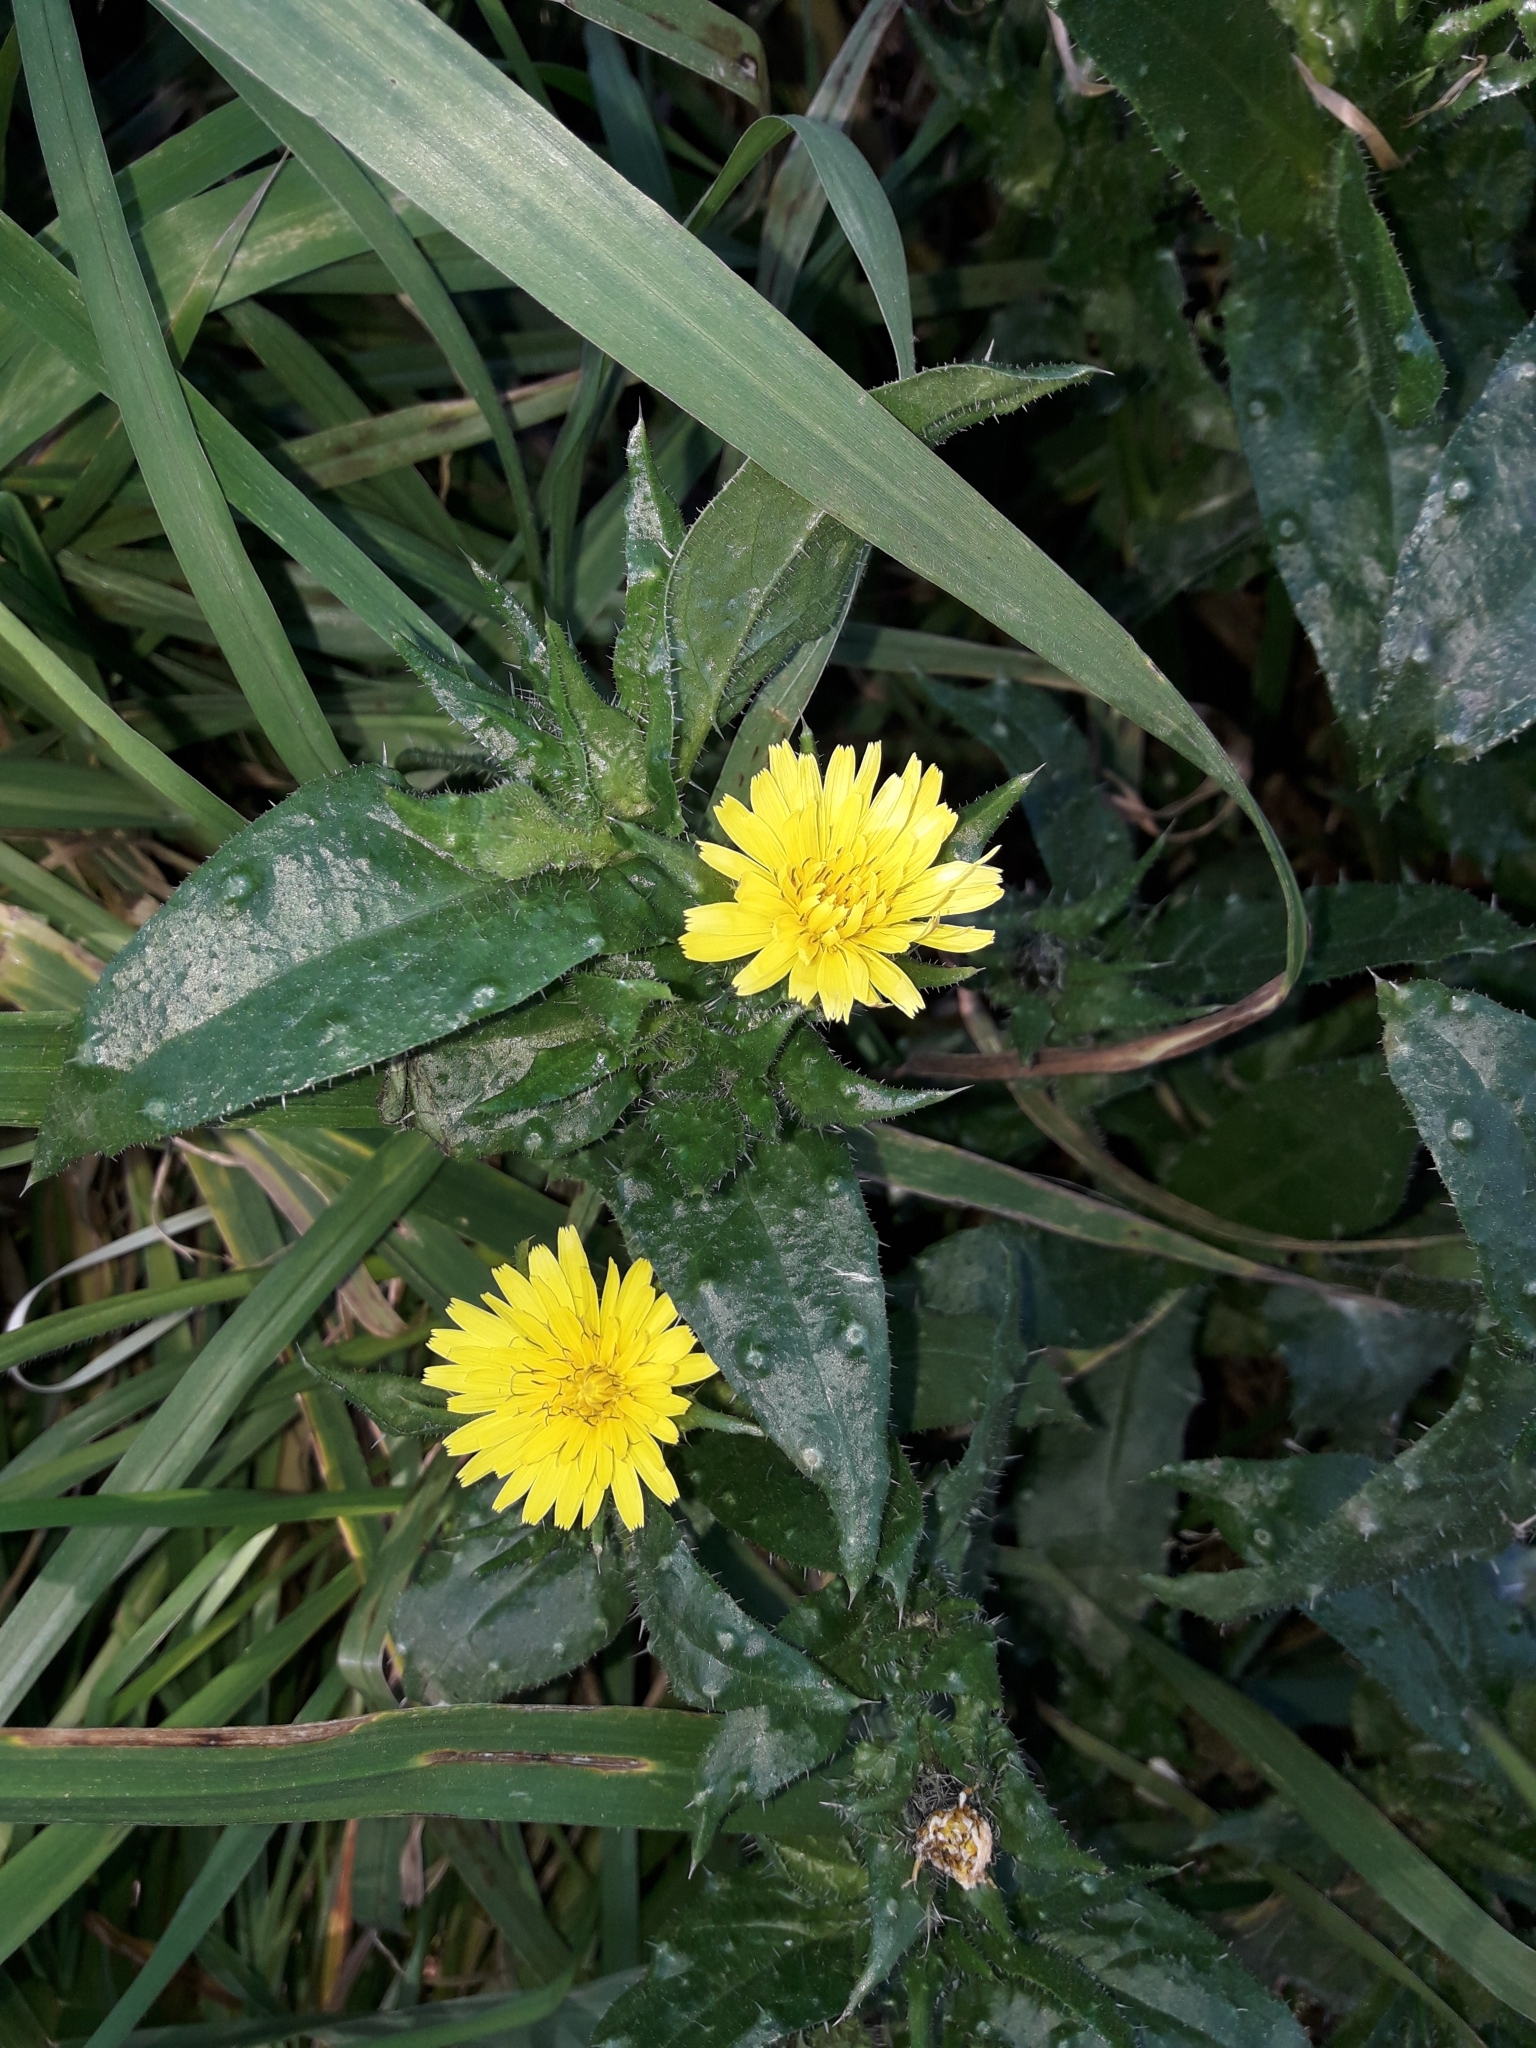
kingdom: Plantae
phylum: Tracheophyta
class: Magnoliopsida
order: Asterales
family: Asteraceae
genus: Helminthotheca
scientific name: Helminthotheca echioides
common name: Ox-tongue
